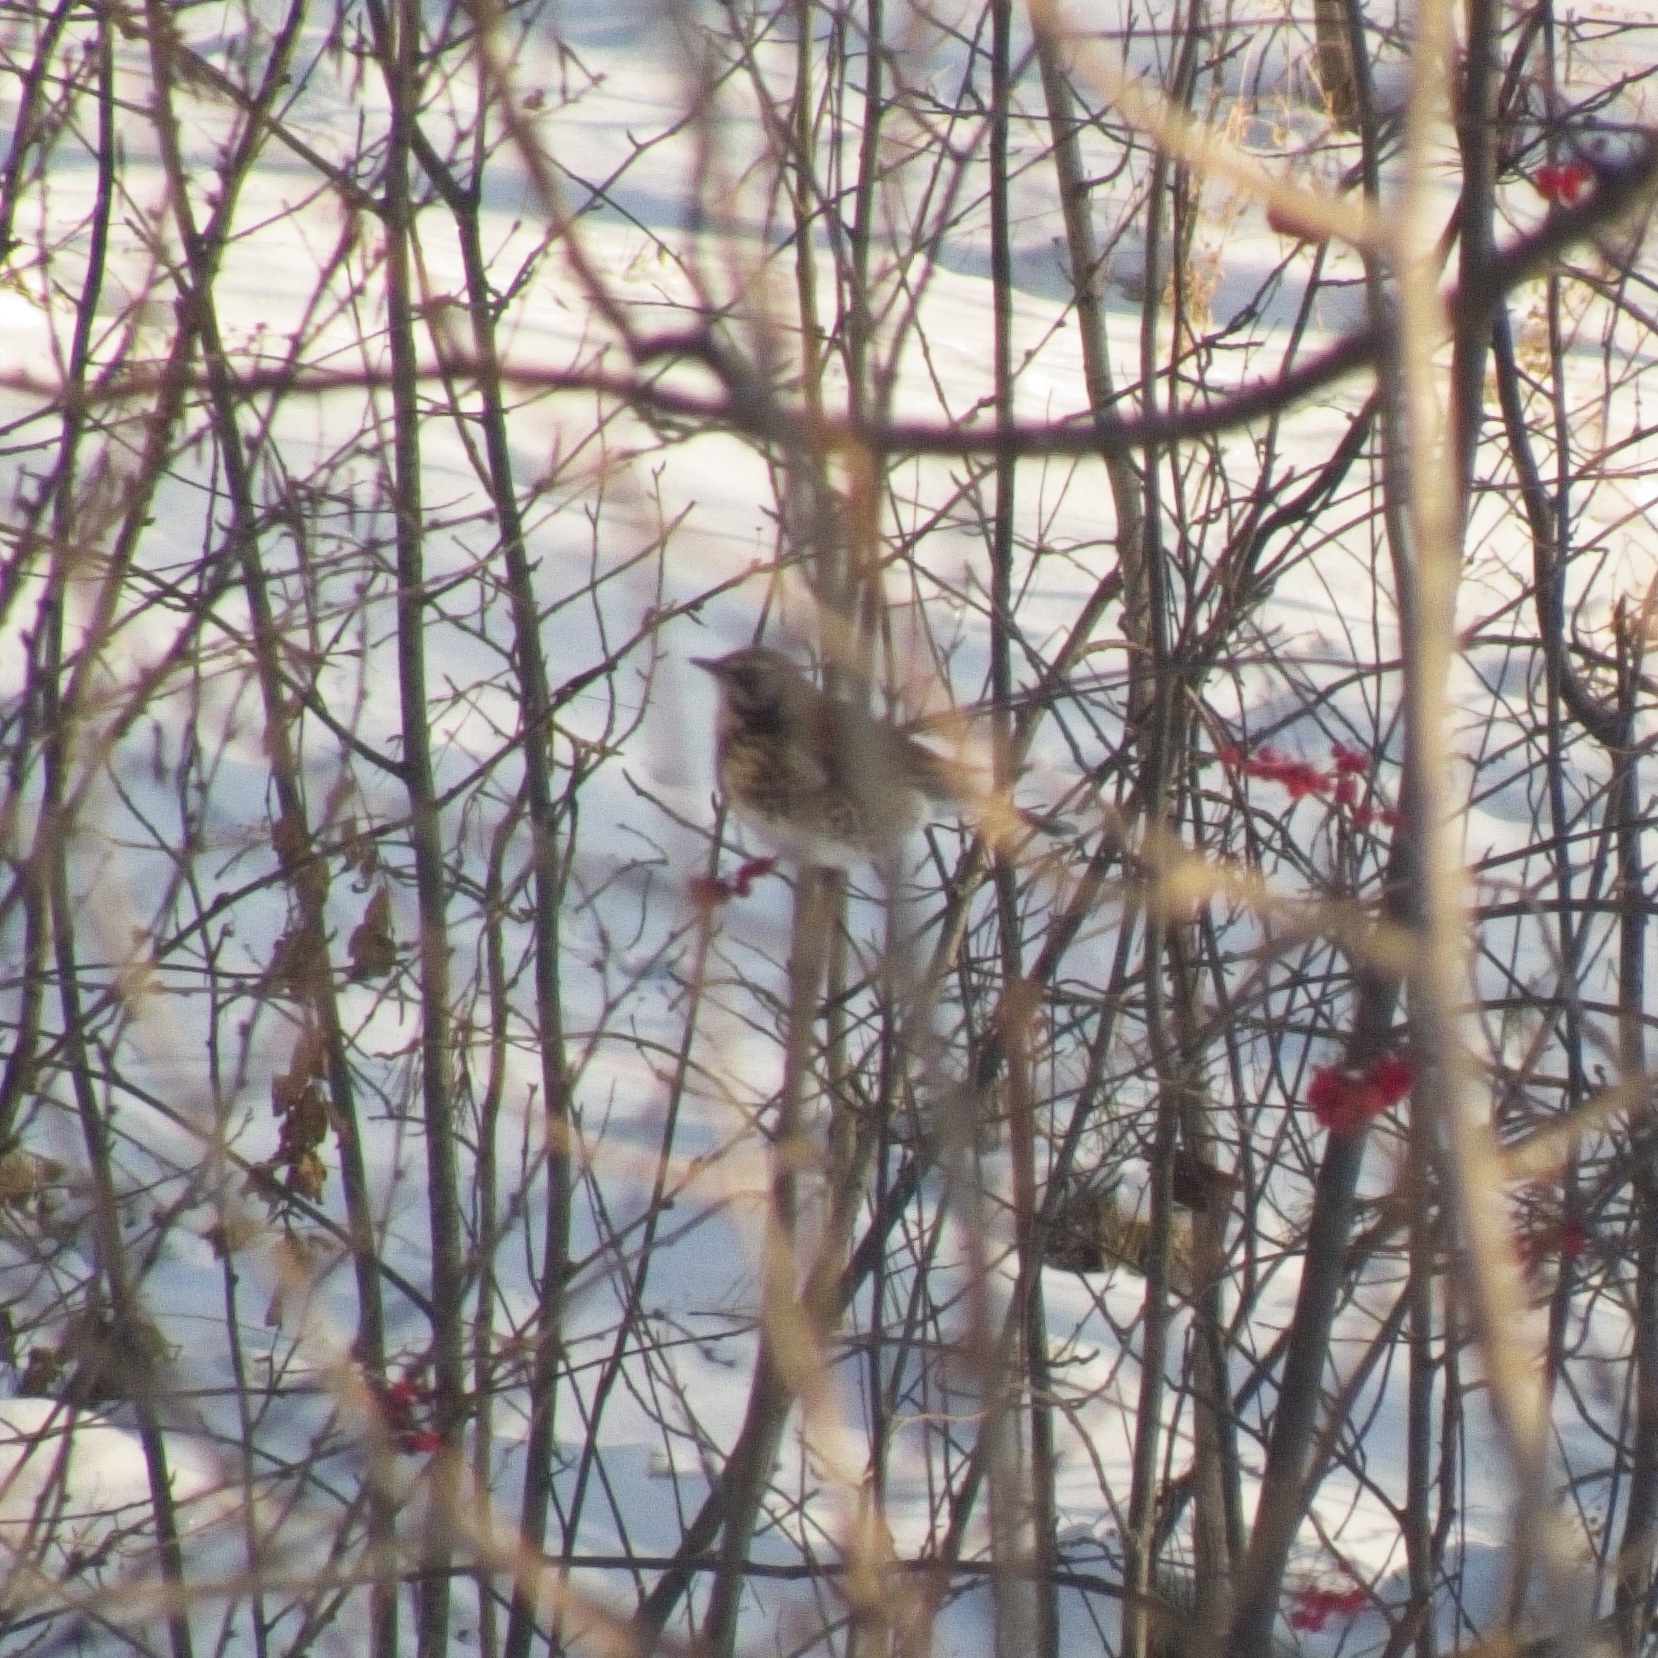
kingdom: Animalia
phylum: Chordata
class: Aves
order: Passeriformes
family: Turdidae
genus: Turdus
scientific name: Turdus pilaris
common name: Fieldfare
